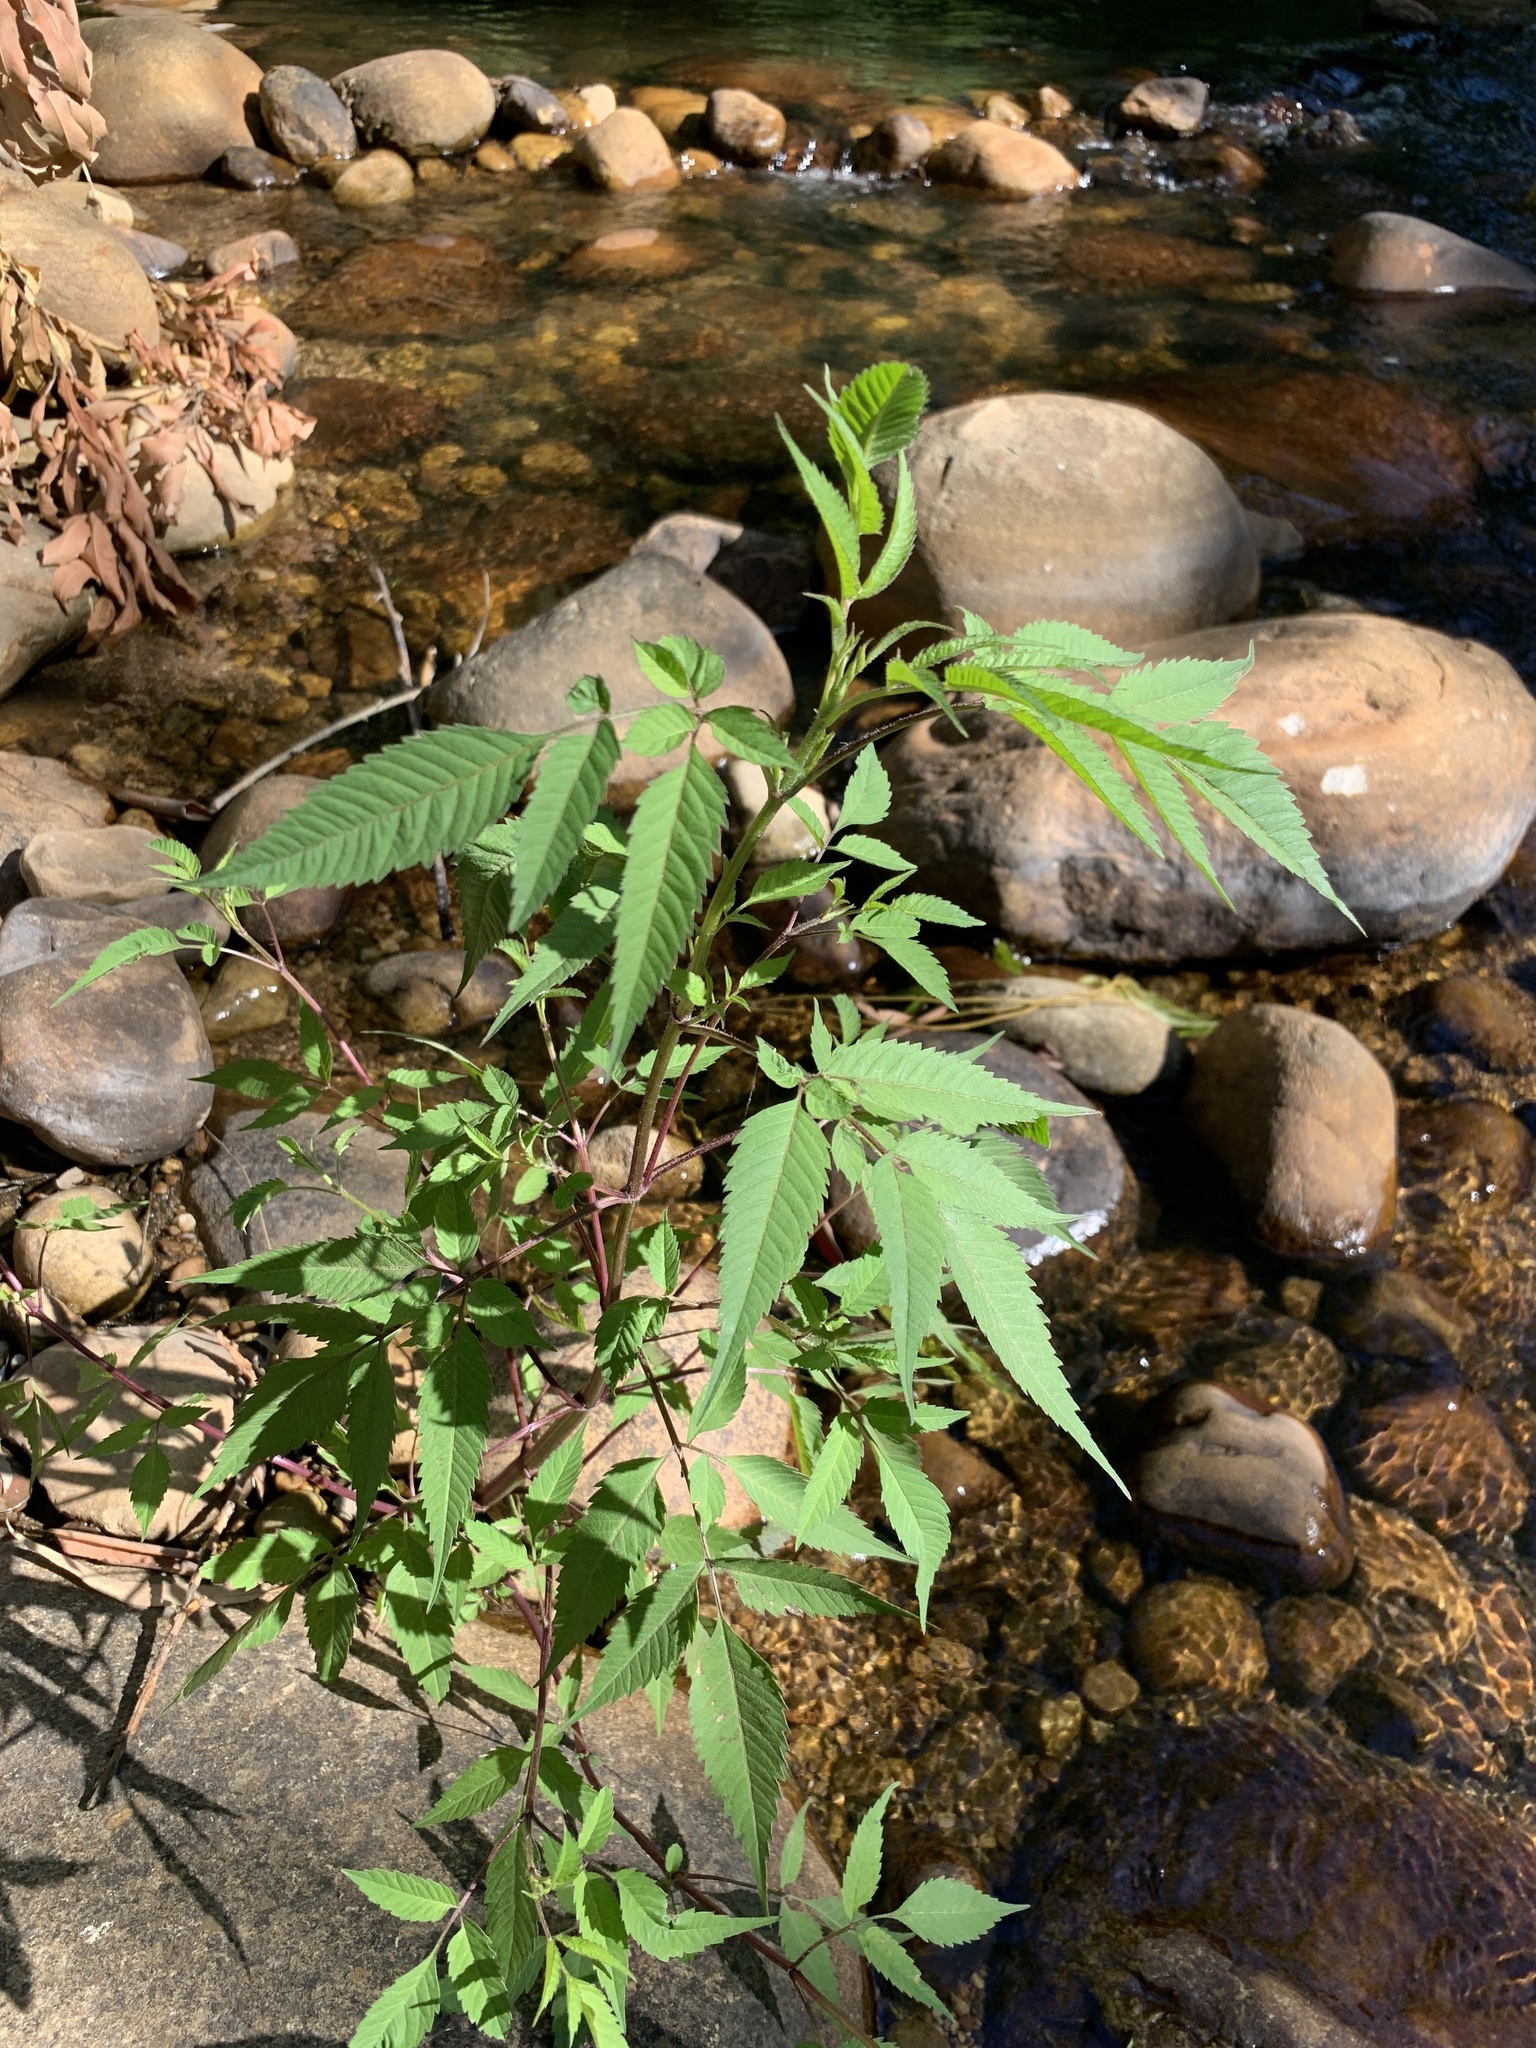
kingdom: Plantae
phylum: Tracheophyta
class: Magnoliopsida
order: Asterales
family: Asteraceae
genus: Bidens
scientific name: Bidens frondosa
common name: Beggarticks
